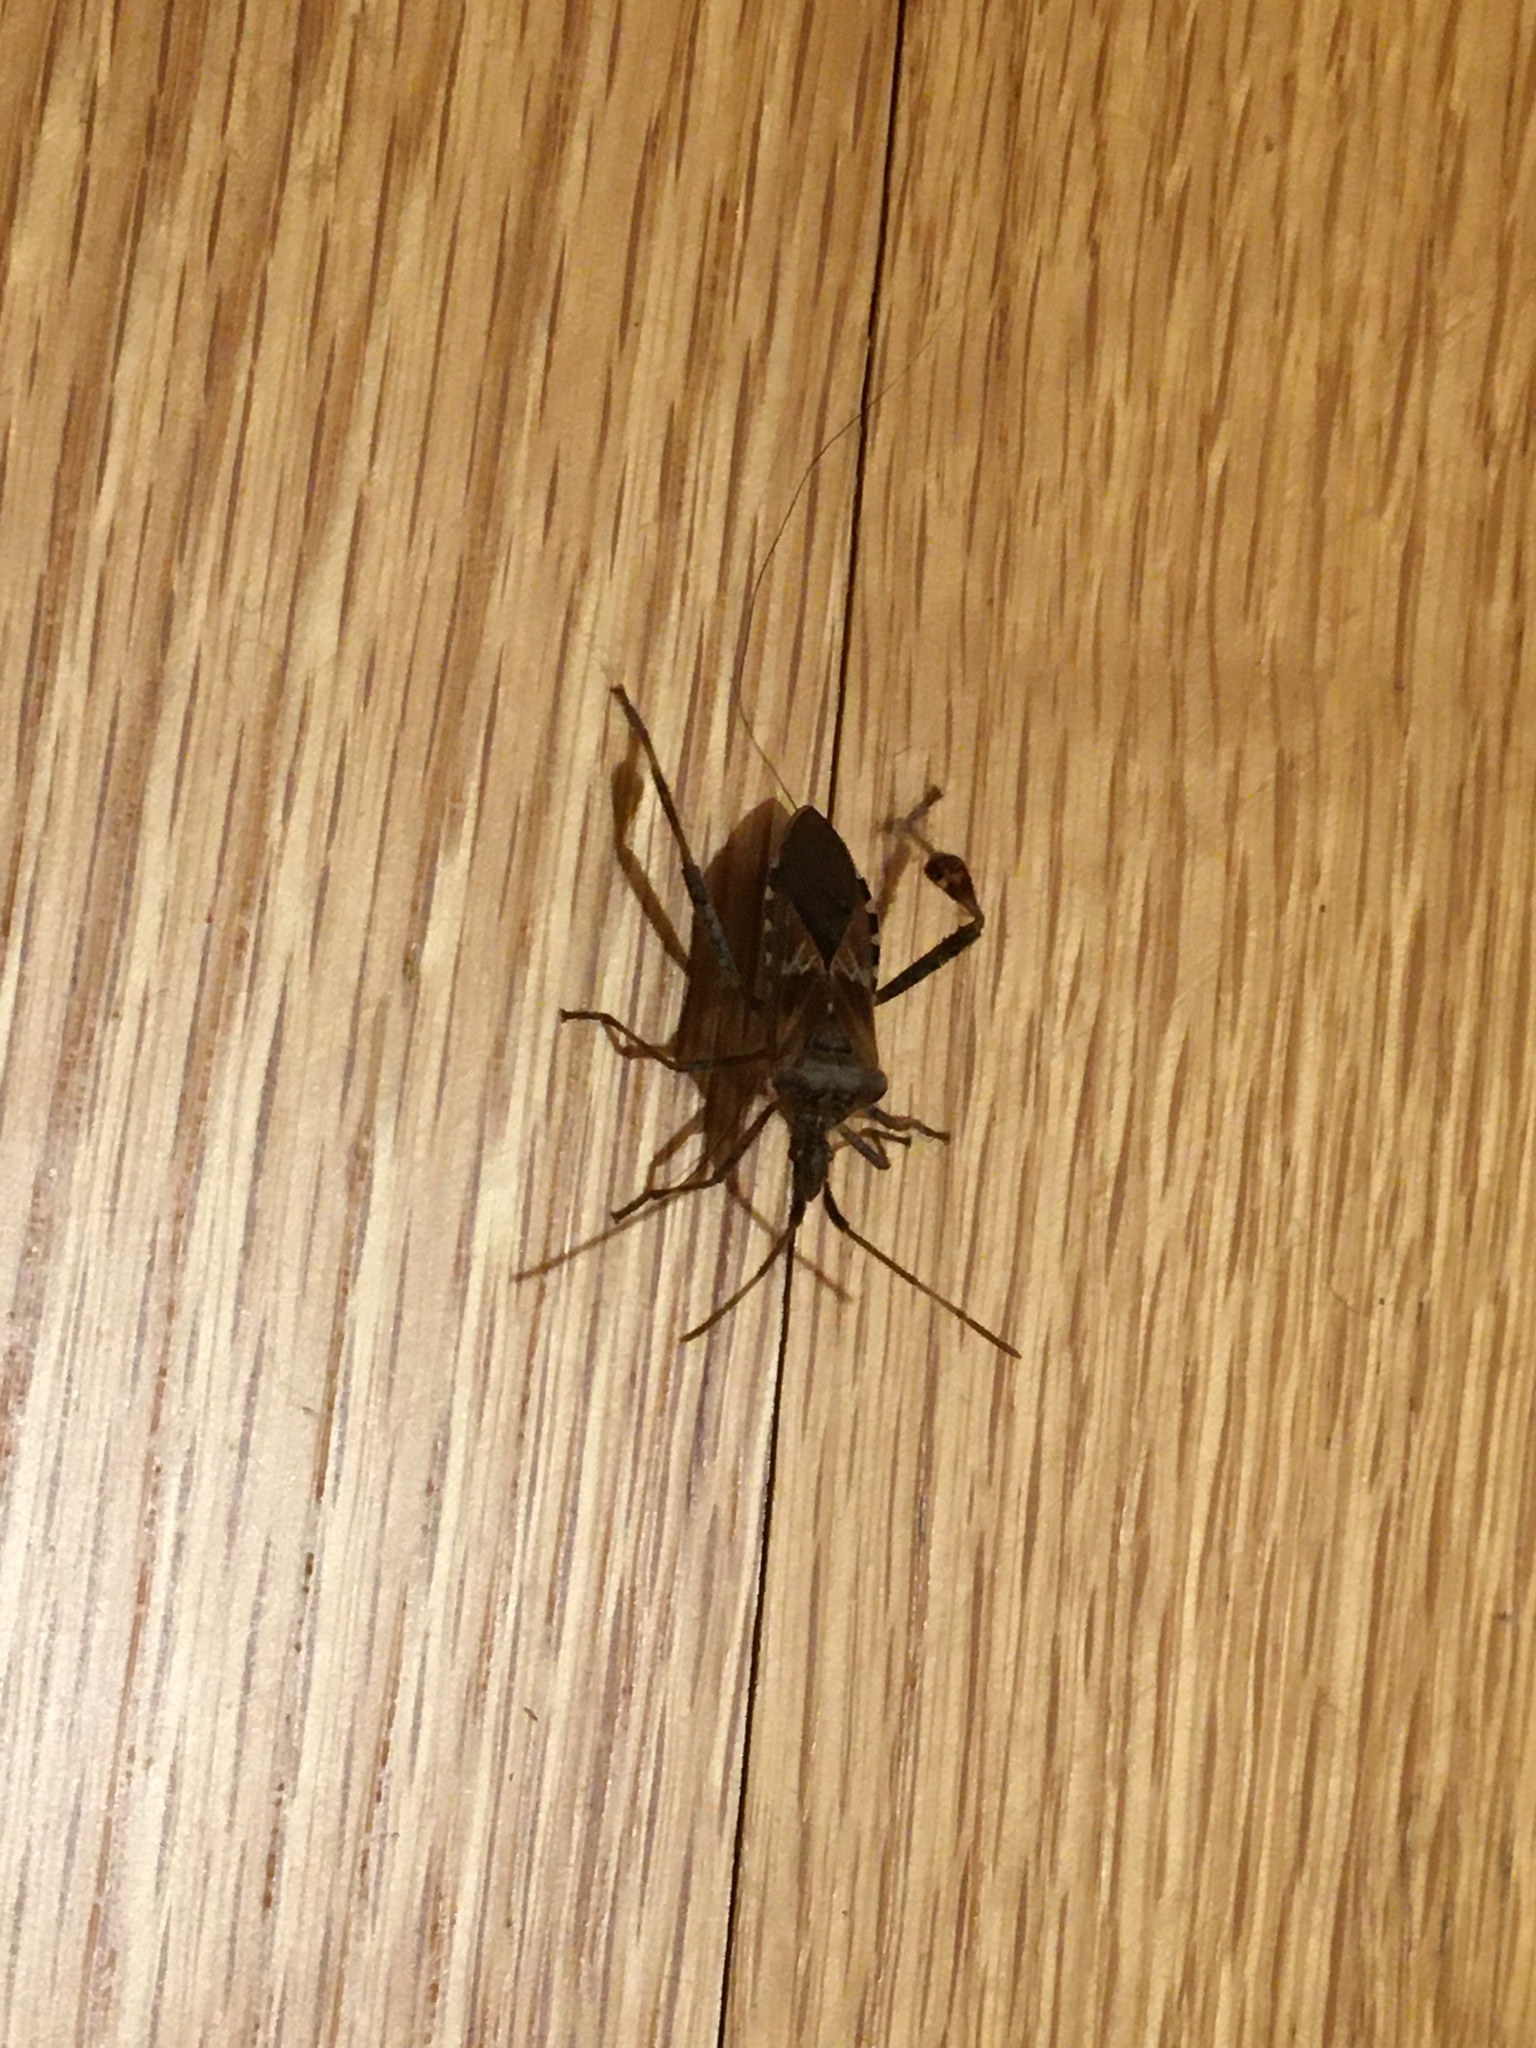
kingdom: Animalia
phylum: Arthropoda
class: Insecta
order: Hemiptera
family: Coreidae
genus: Leptoglossus
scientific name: Leptoglossus occidentalis
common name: Western conifer-seed bug
